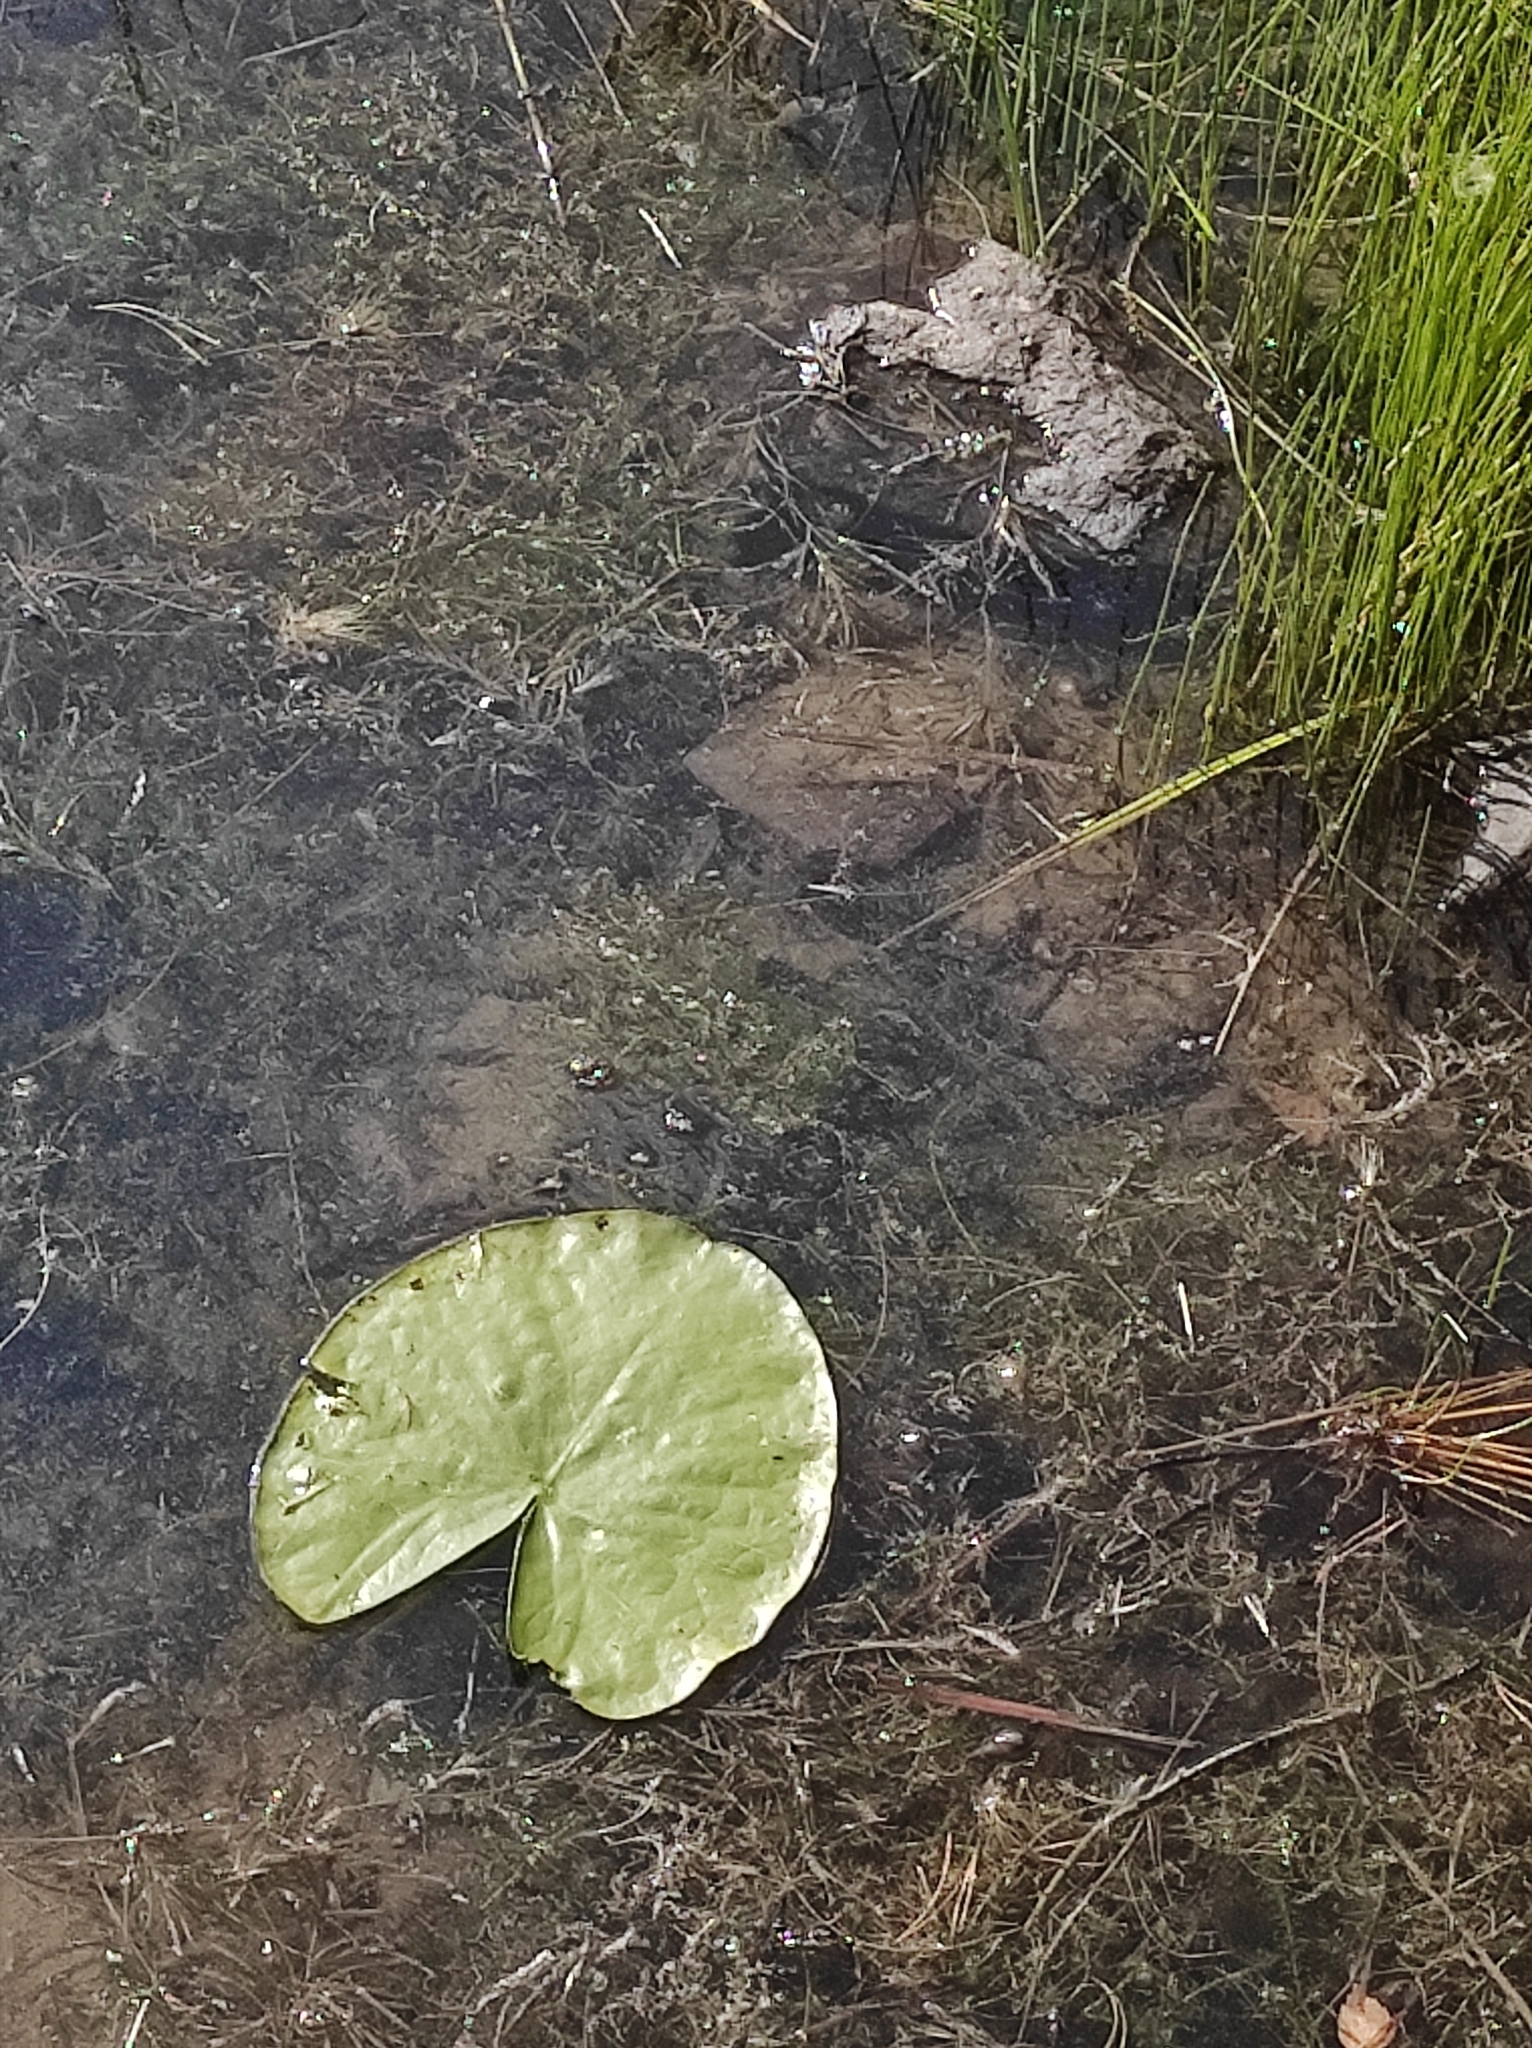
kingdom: Plantae
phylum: Tracheophyta
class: Magnoliopsida
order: Asterales
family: Menyanthaceae
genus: Nymphoides
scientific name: Nymphoides peltata
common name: Fringed water-lily
